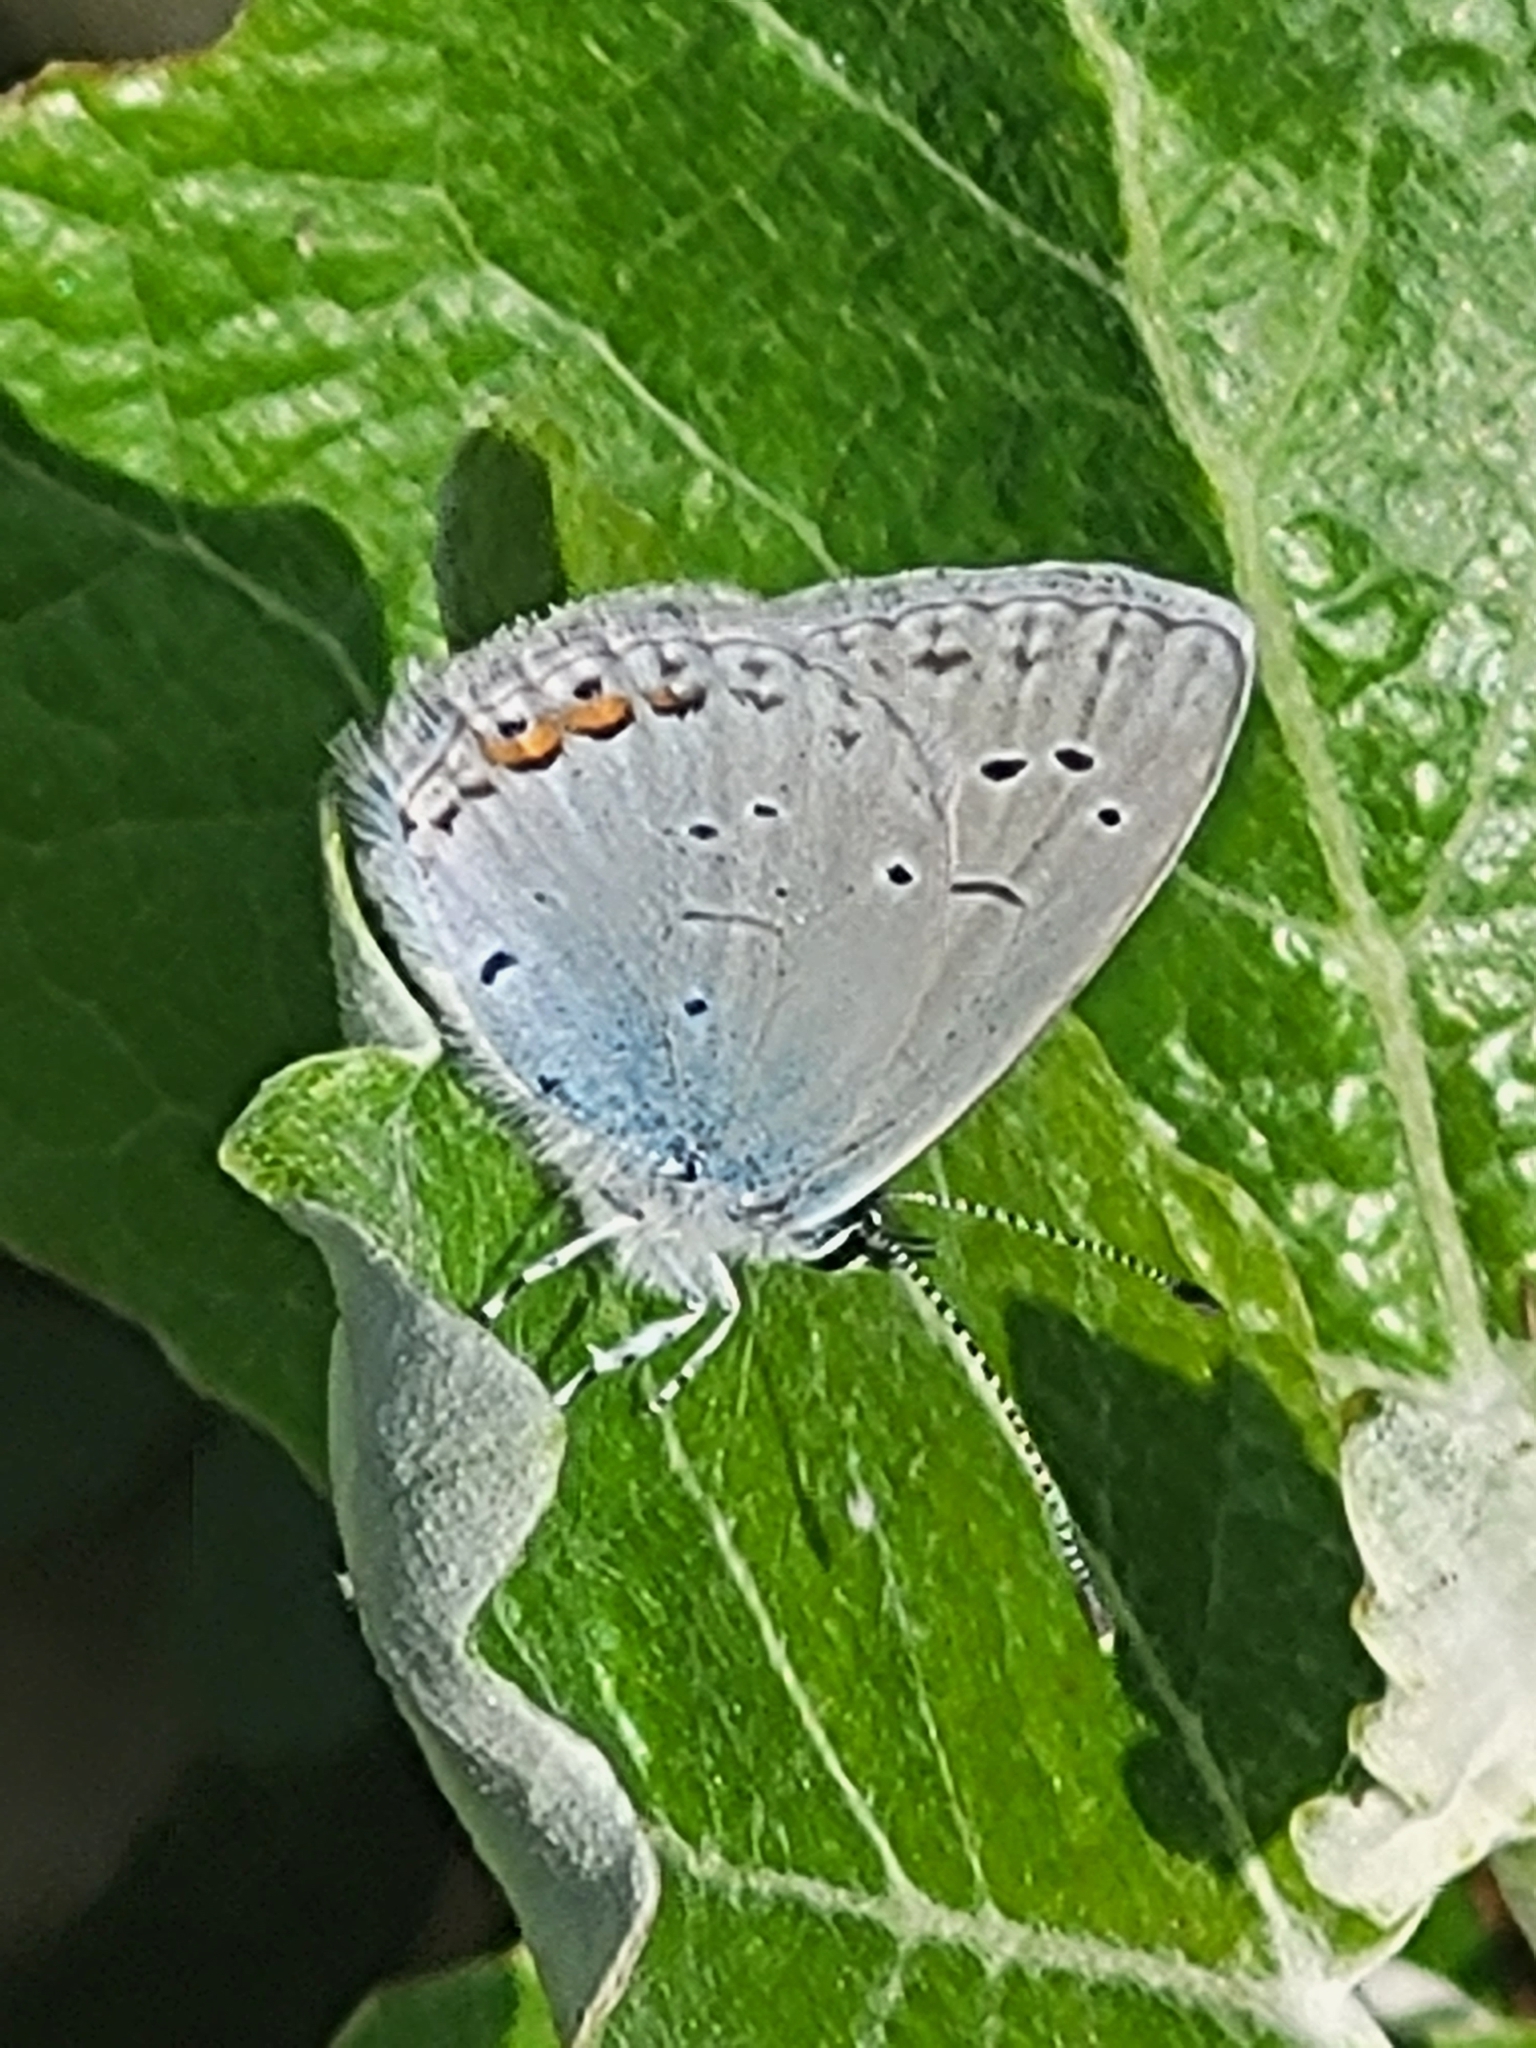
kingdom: Animalia
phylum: Arthropoda
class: Insecta
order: Lepidoptera
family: Lycaenidae
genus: Elkalyce
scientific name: Elkalyce argiades
